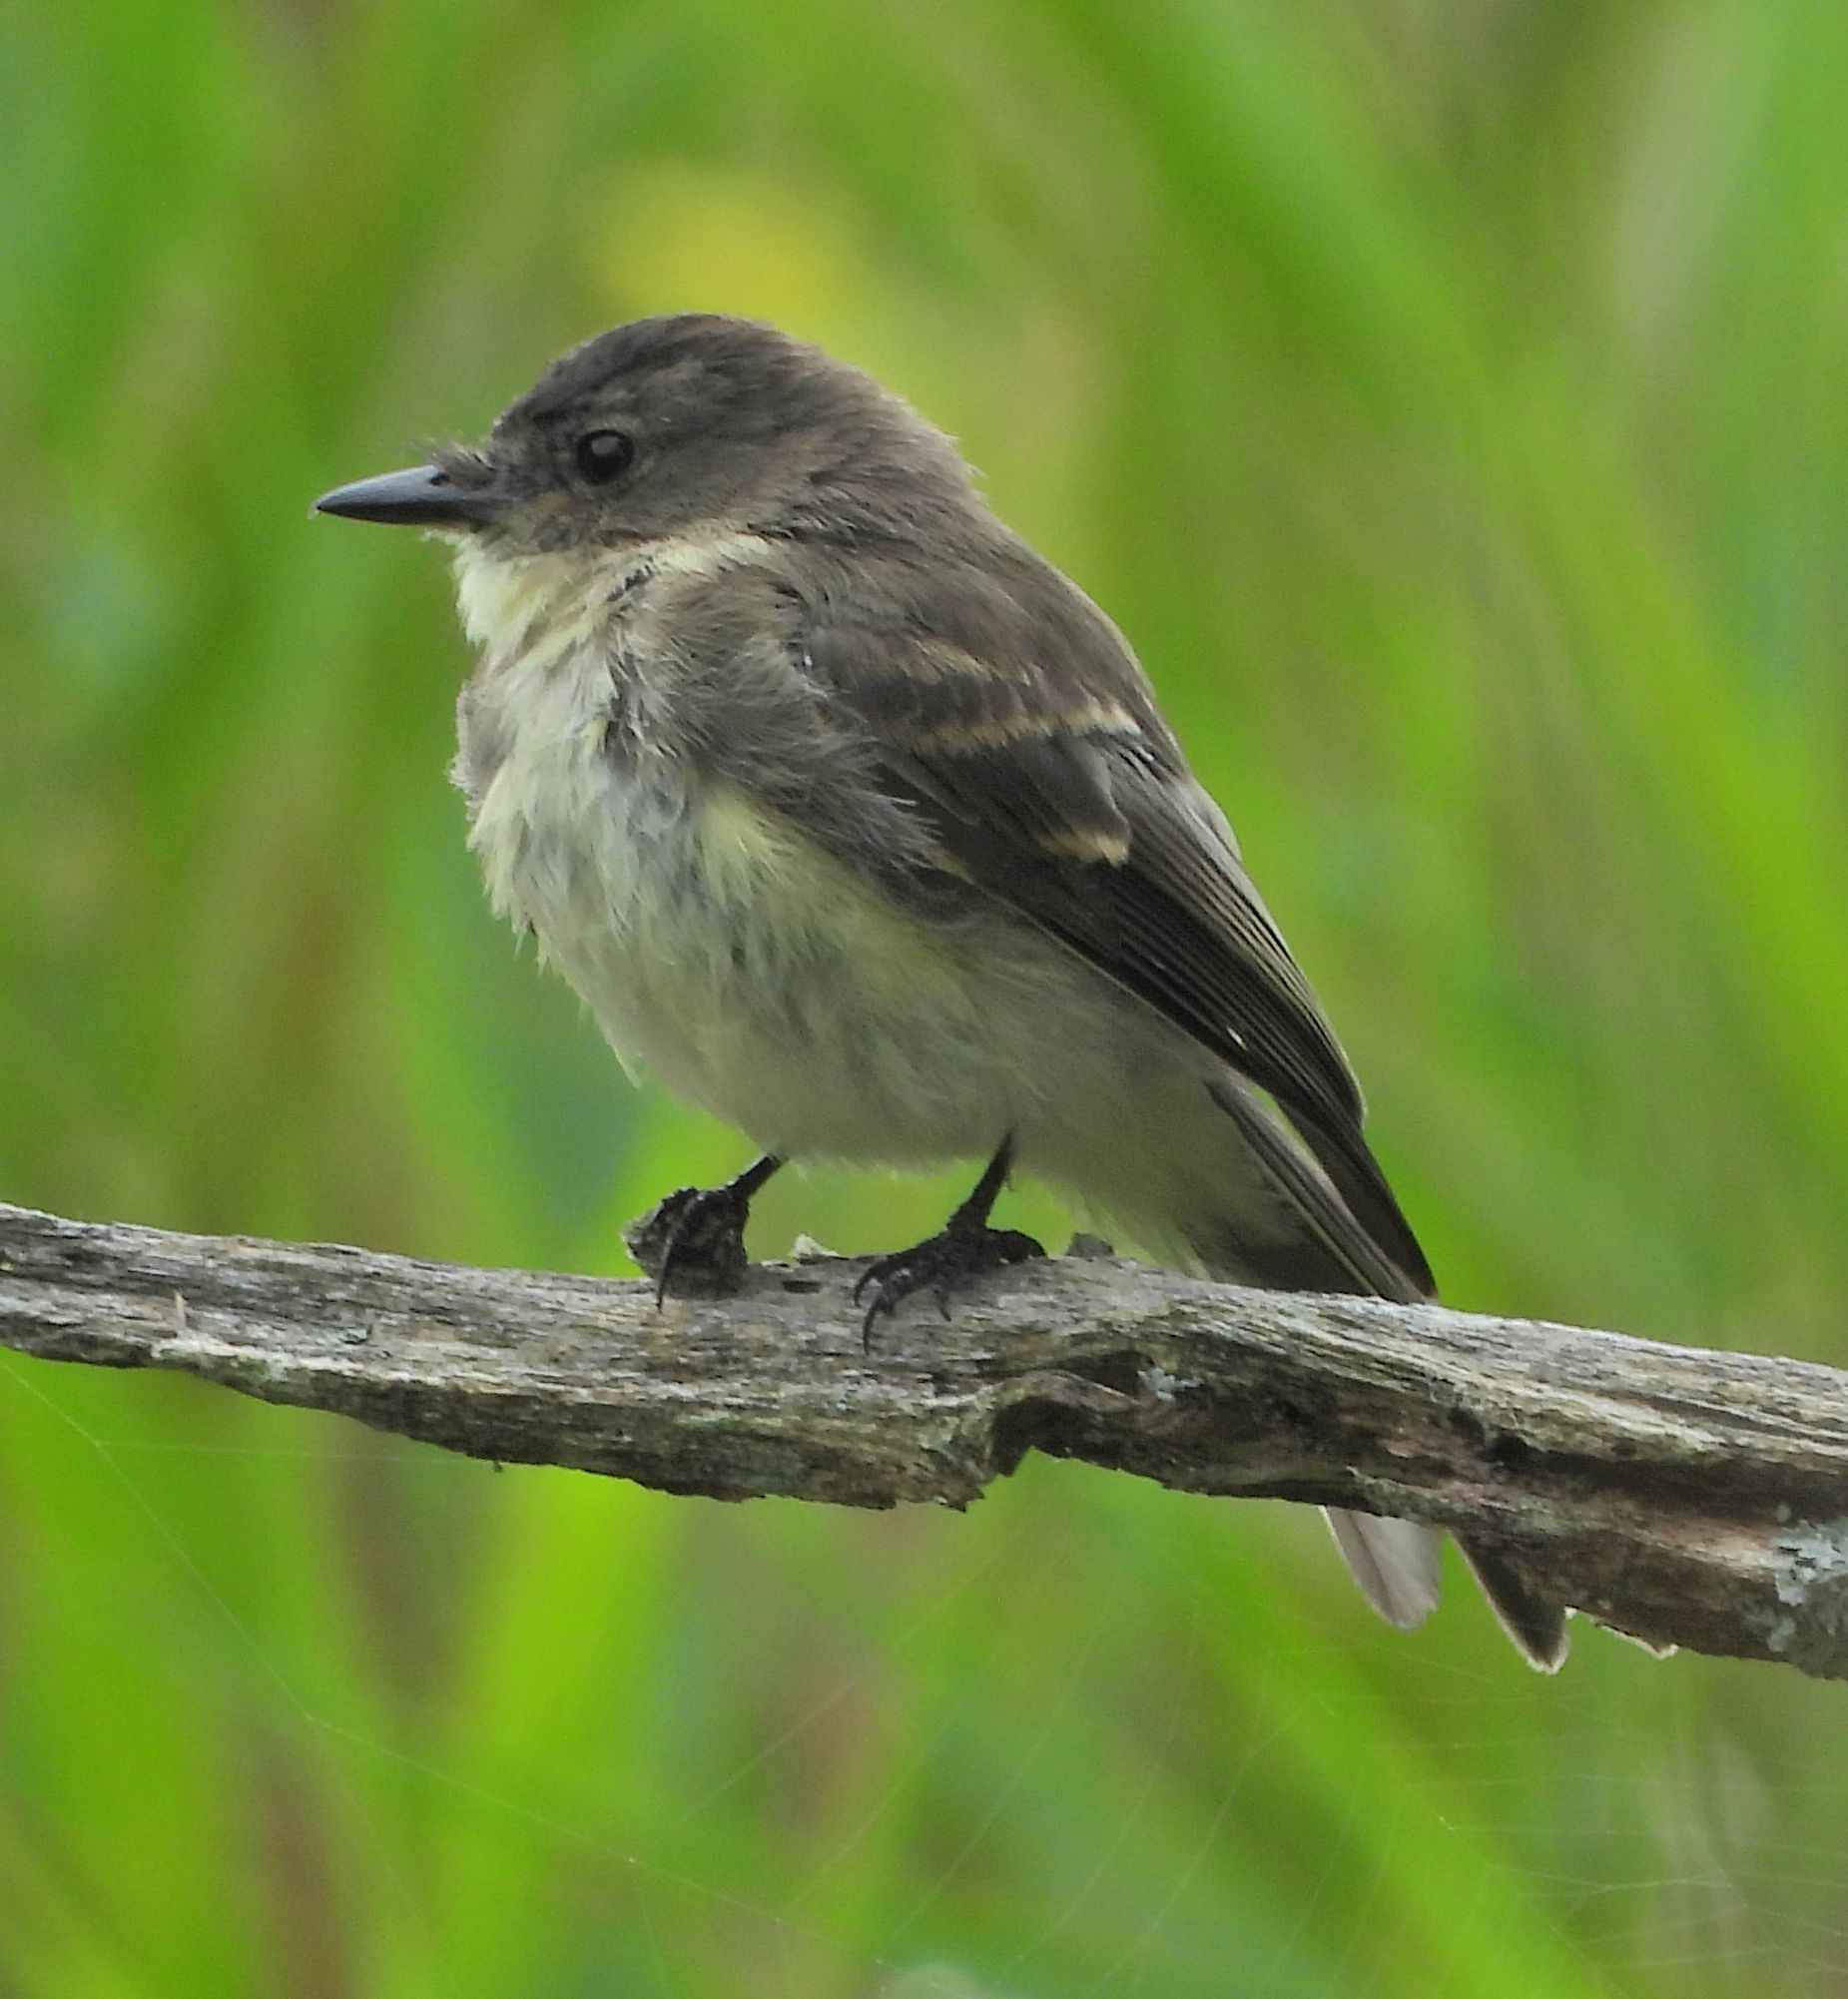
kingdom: Animalia
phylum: Chordata
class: Aves
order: Passeriformes
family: Tyrannidae
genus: Sayornis
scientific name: Sayornis phoebe
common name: Eastern phoebe
